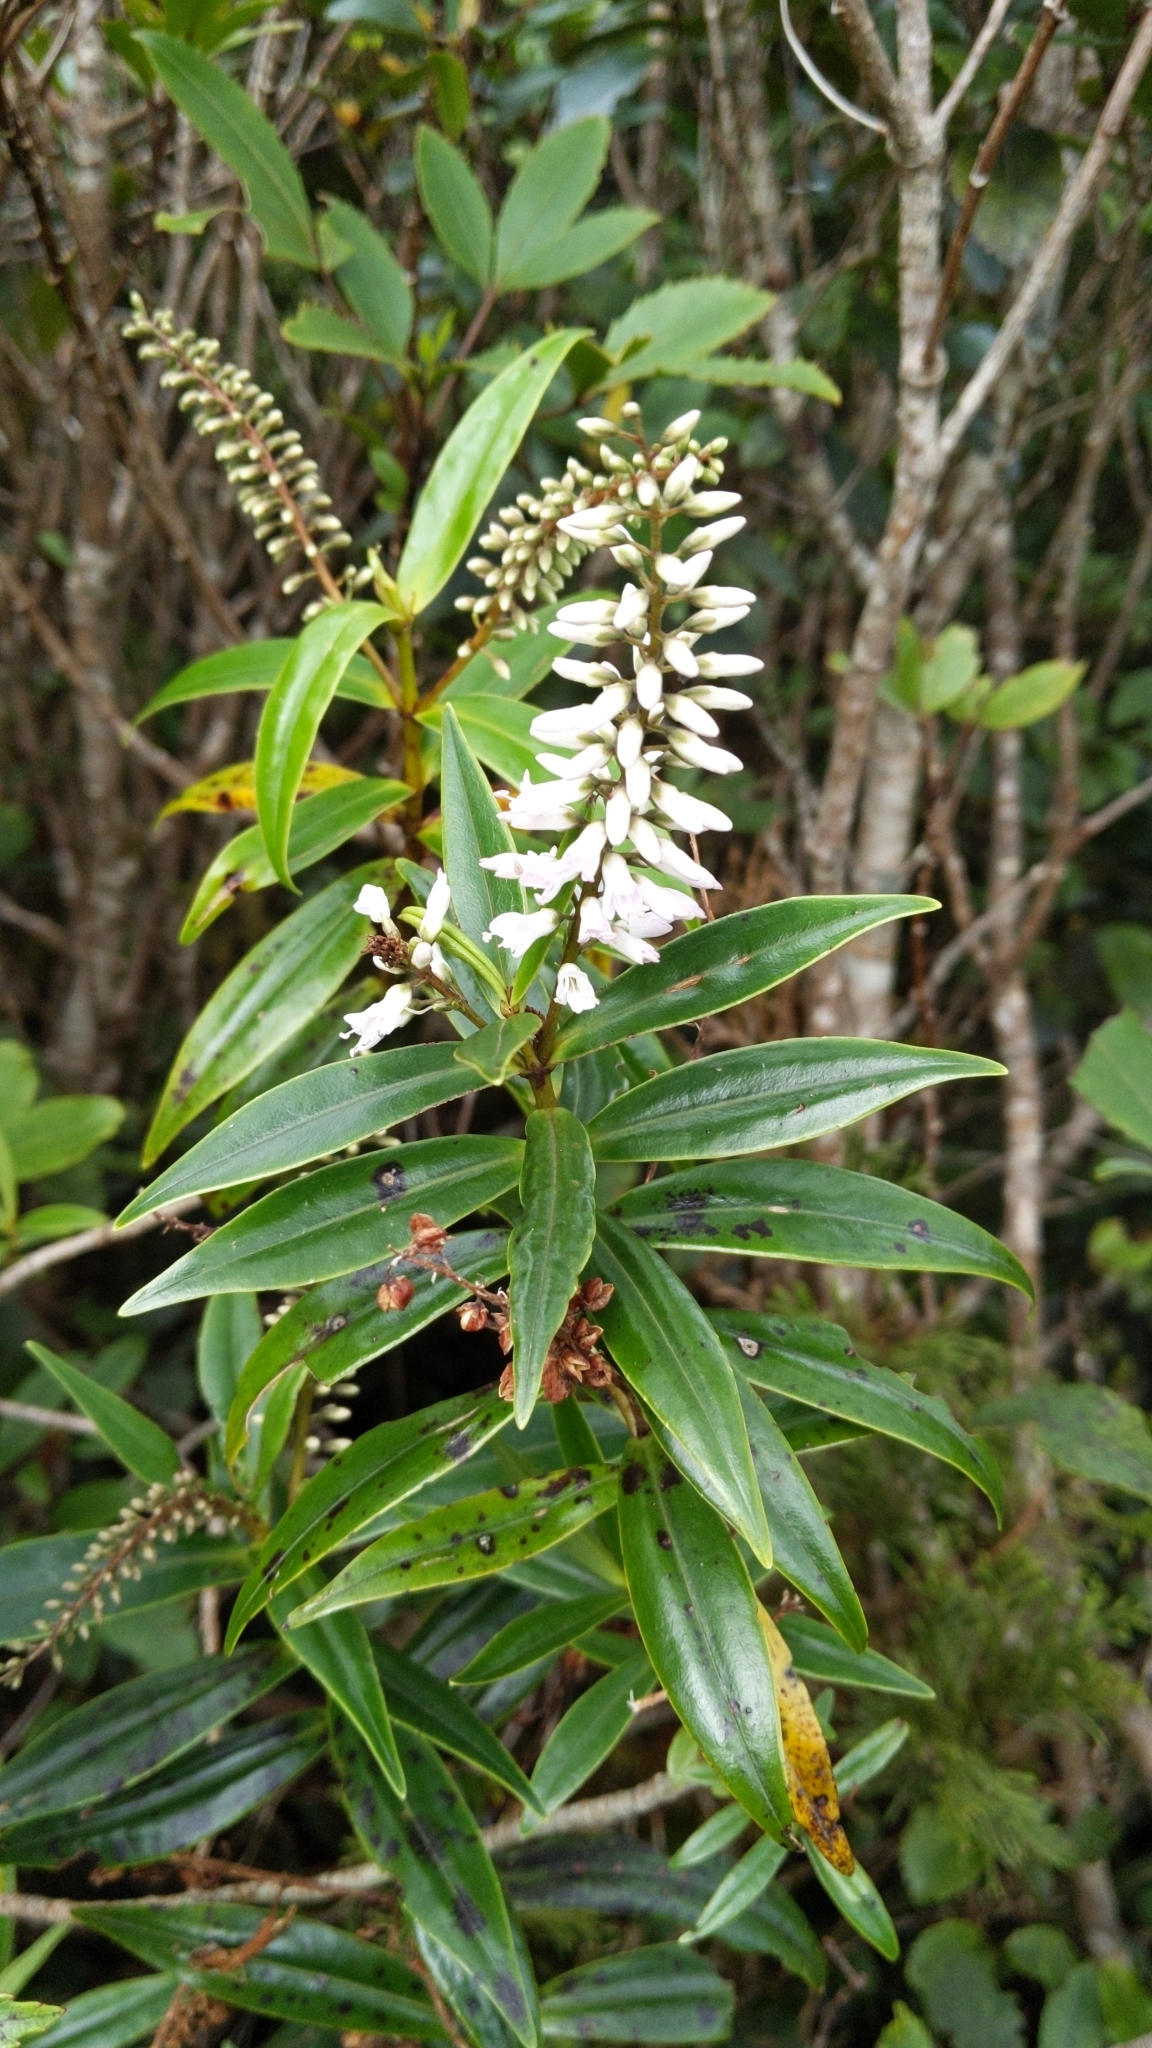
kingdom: Plantae
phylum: Tracheophyta
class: Magnoliopsida
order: Lamiales
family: Plantaginaceae
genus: Veronica
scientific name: Veronica stricta
